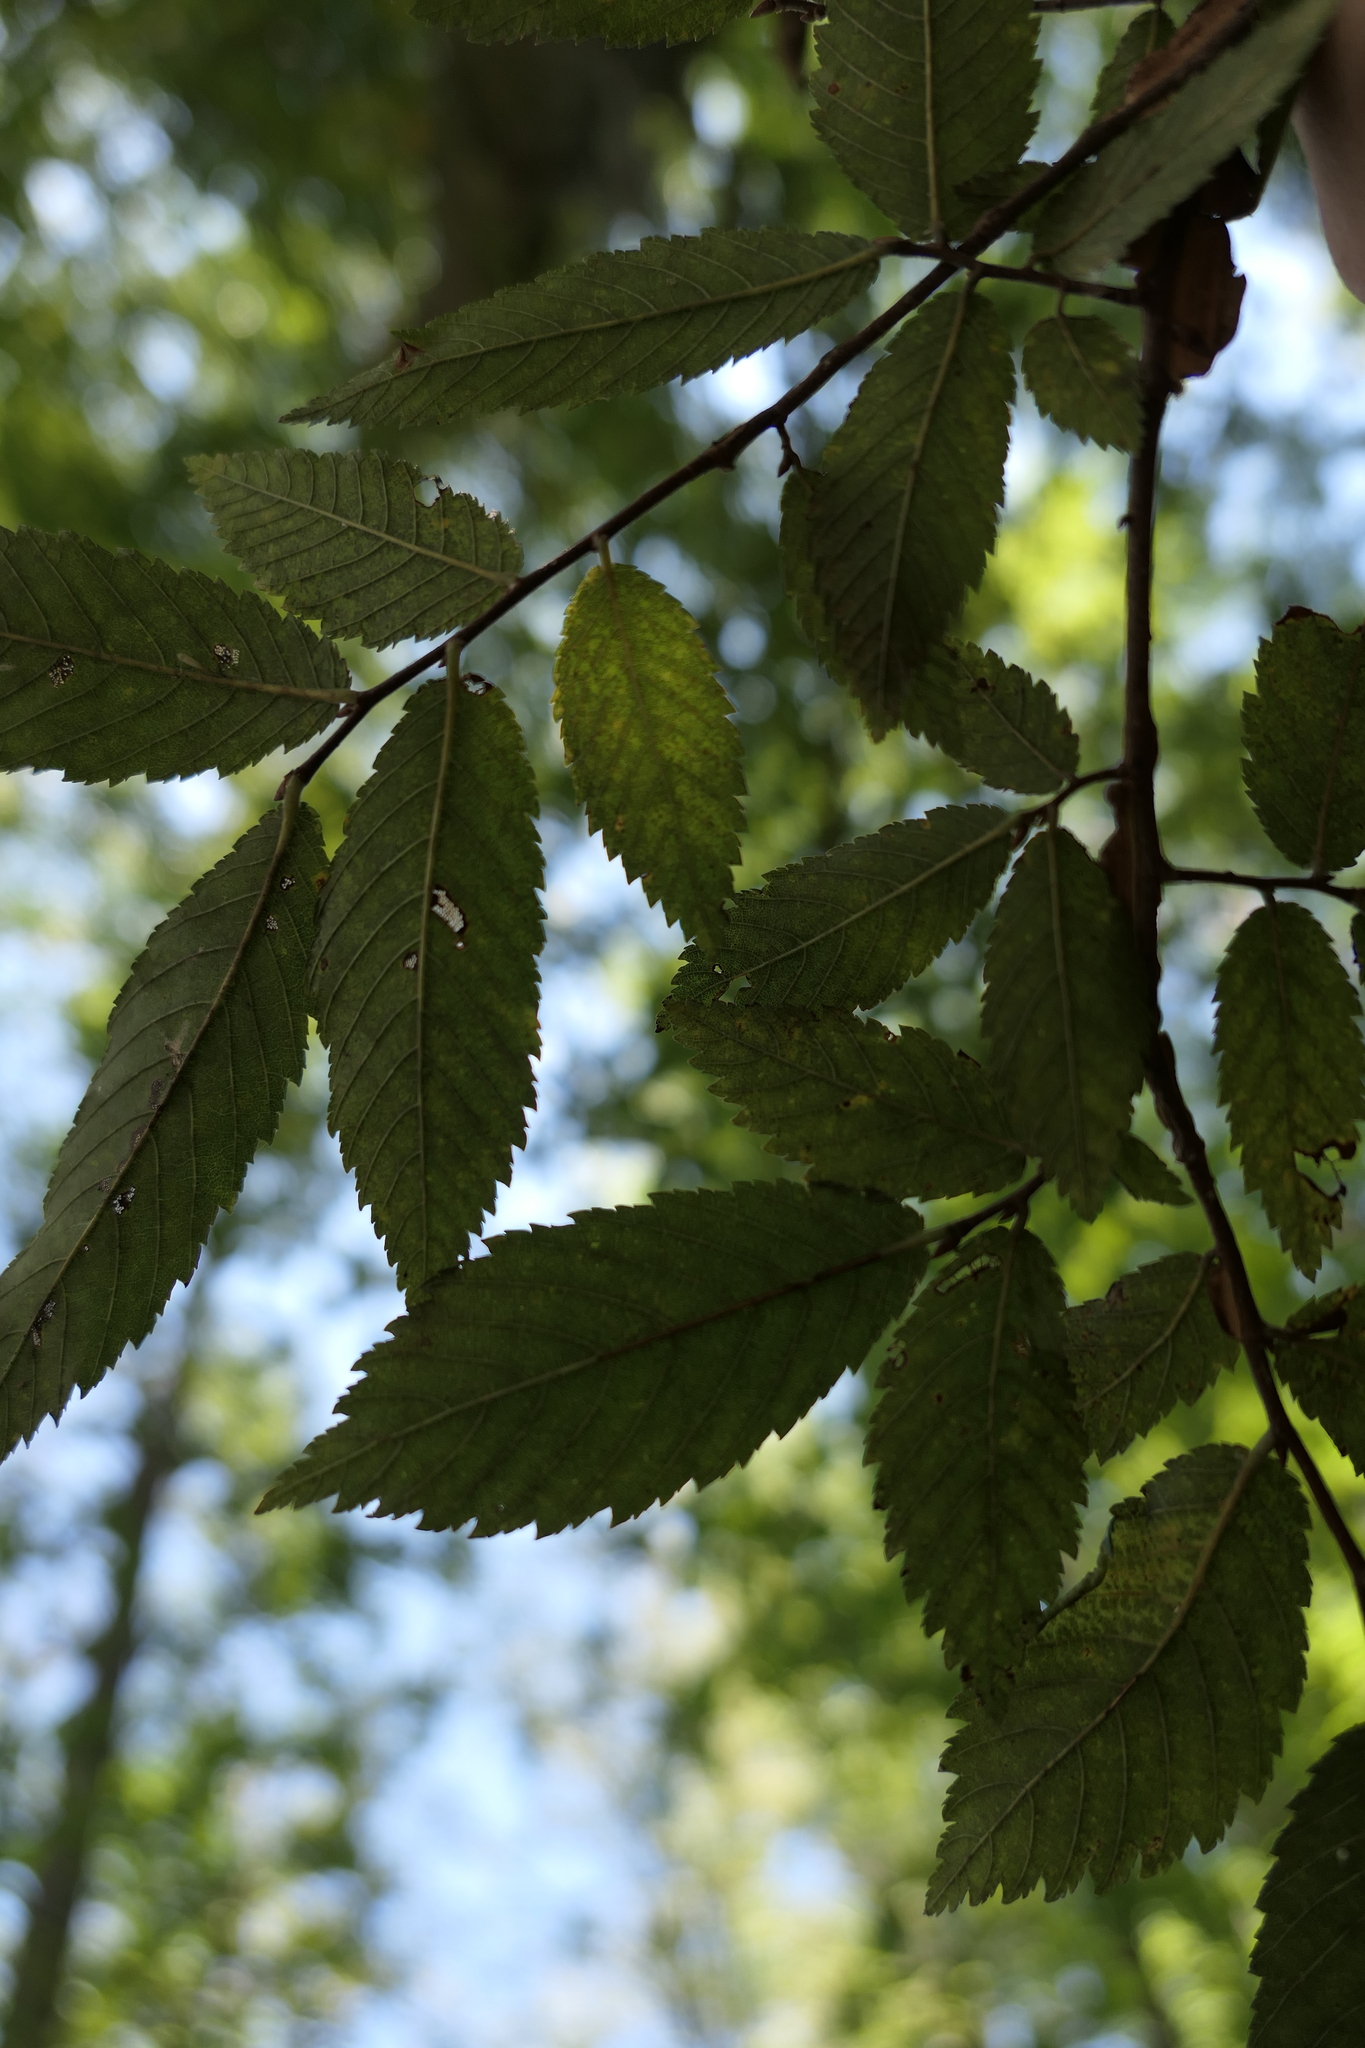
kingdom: Plantae
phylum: Tracheophyta
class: Magnoliopsida
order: Rosales
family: Ulmaceae
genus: Ulmus
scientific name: Ulmus alata
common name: Winged elm
